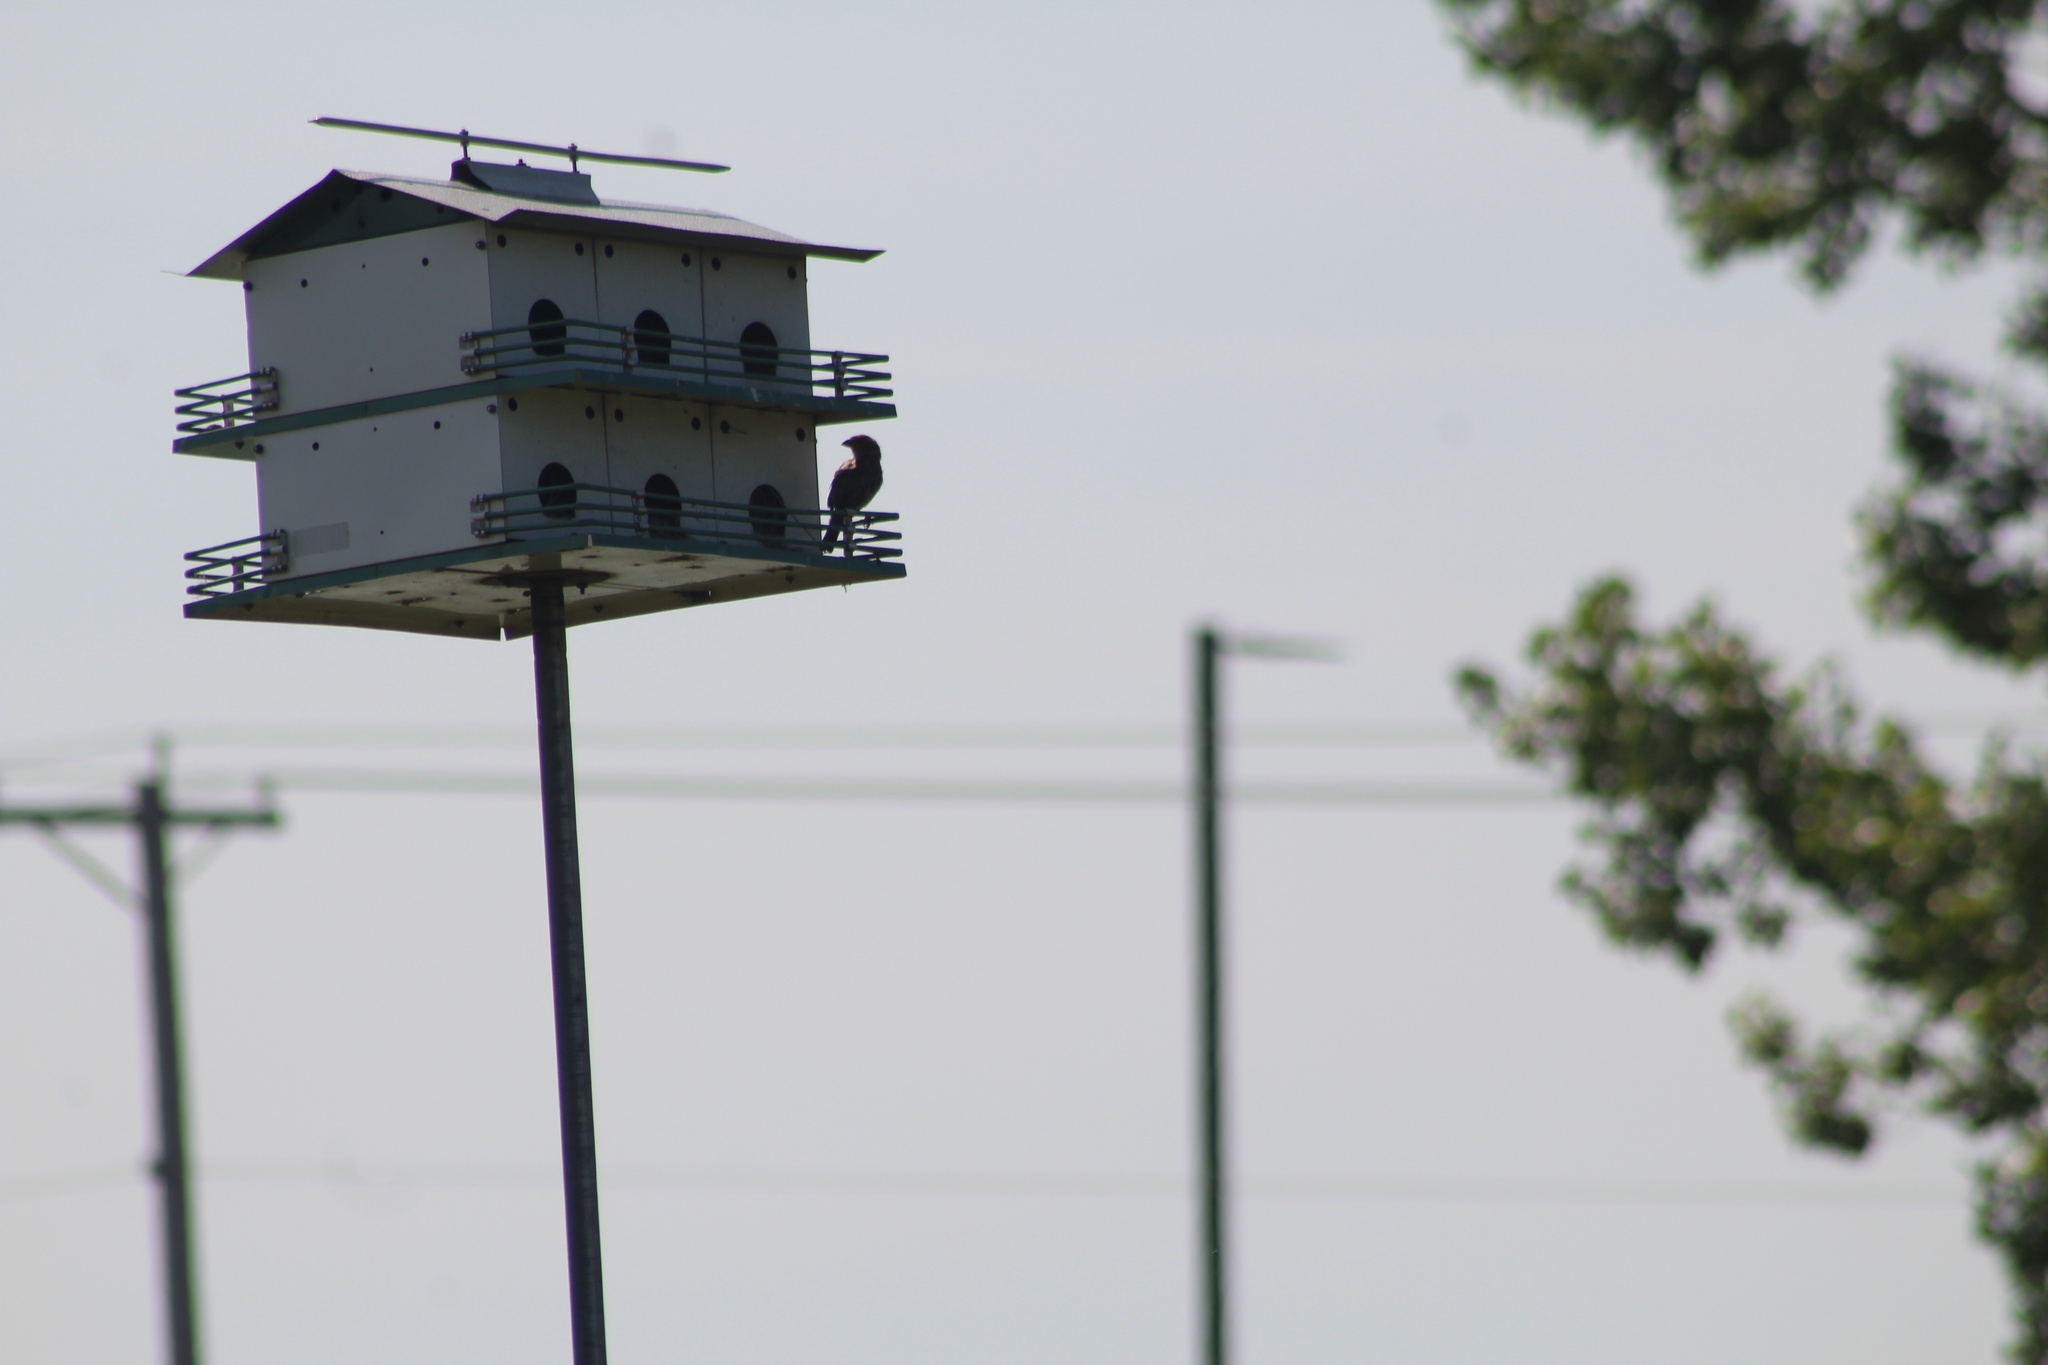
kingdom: Animalia
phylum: Chordata
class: Aves
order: Passeriformes
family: Passeridae
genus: Passer
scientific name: Passer domesticus
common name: House sparrow
